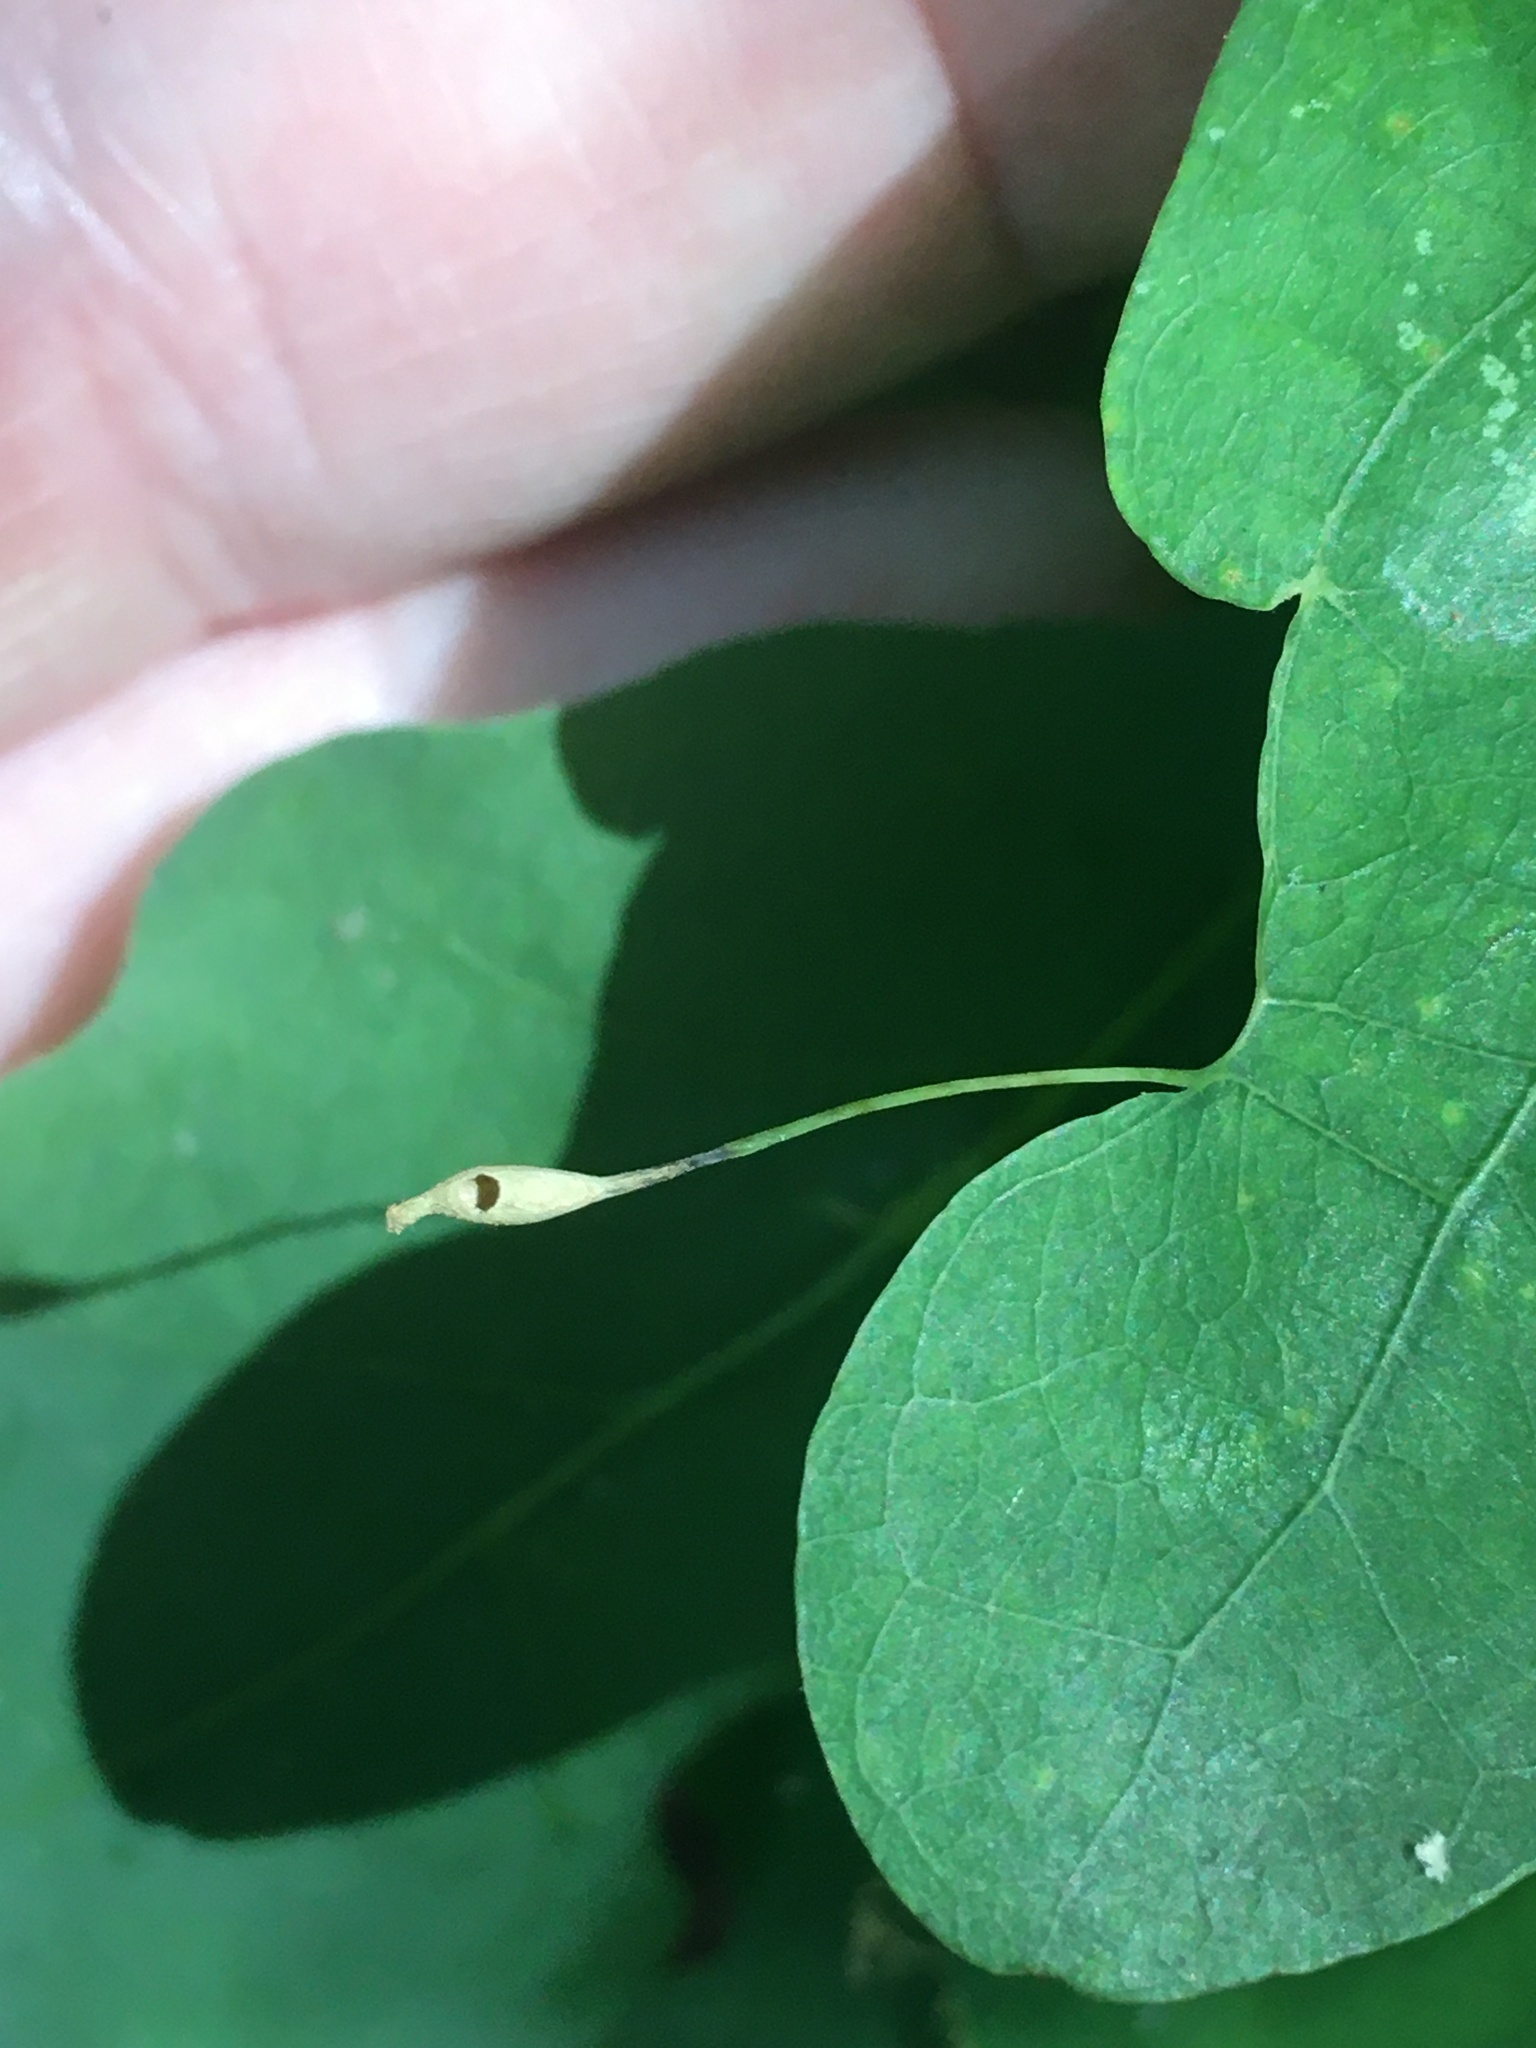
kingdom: Animalia
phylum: Arthropoda
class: Insecta
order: Hymenoptera
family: Cynipidae
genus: Andricus
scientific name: Andricus
